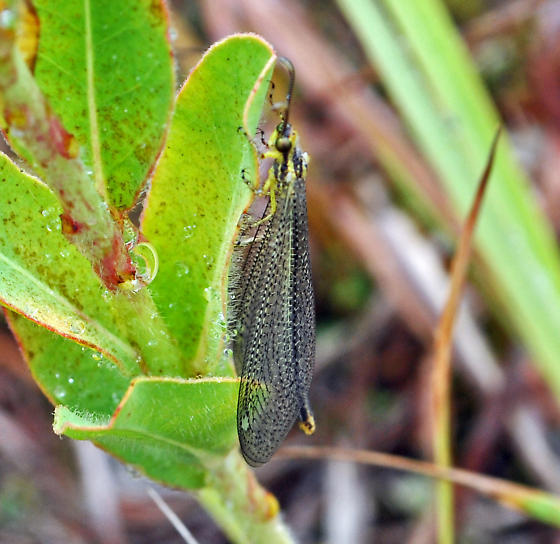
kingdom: Animalia
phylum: Arthropoda
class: Insecta
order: Neuroptera
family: Myrmeleontidae
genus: Brachynemurus
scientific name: Brachynemurus abdominalis
